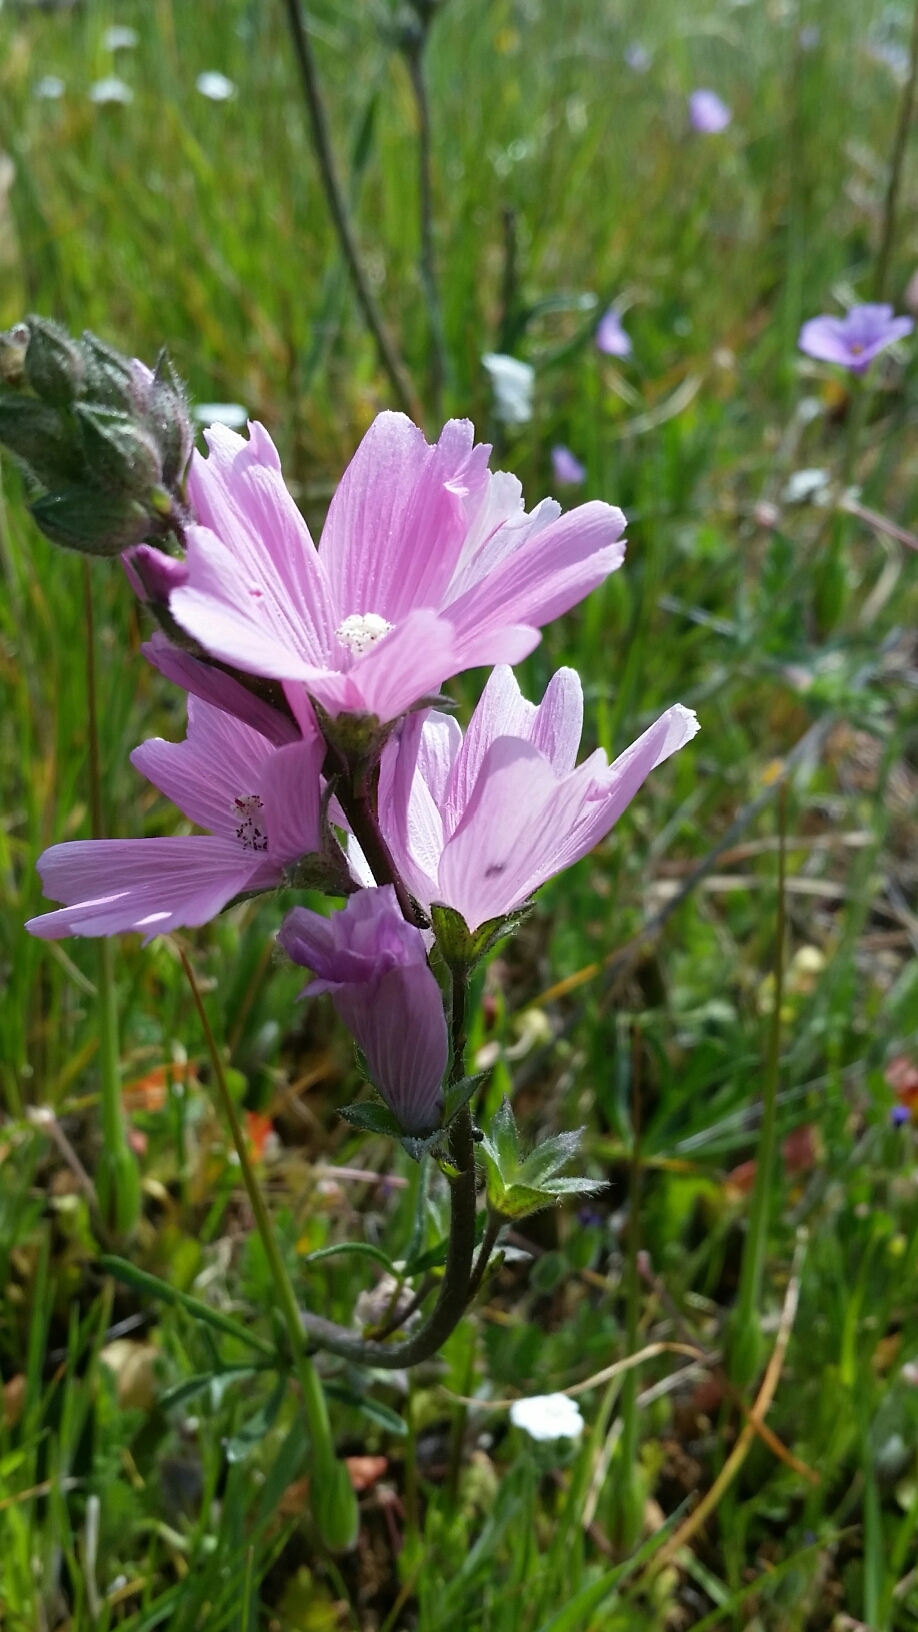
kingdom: Plantae
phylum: Tracheophyta
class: Magnoliopsida
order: Malvales
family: Malvaceae
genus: Sidalcea
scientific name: Sidalcea malviflora
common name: Greek mallow
